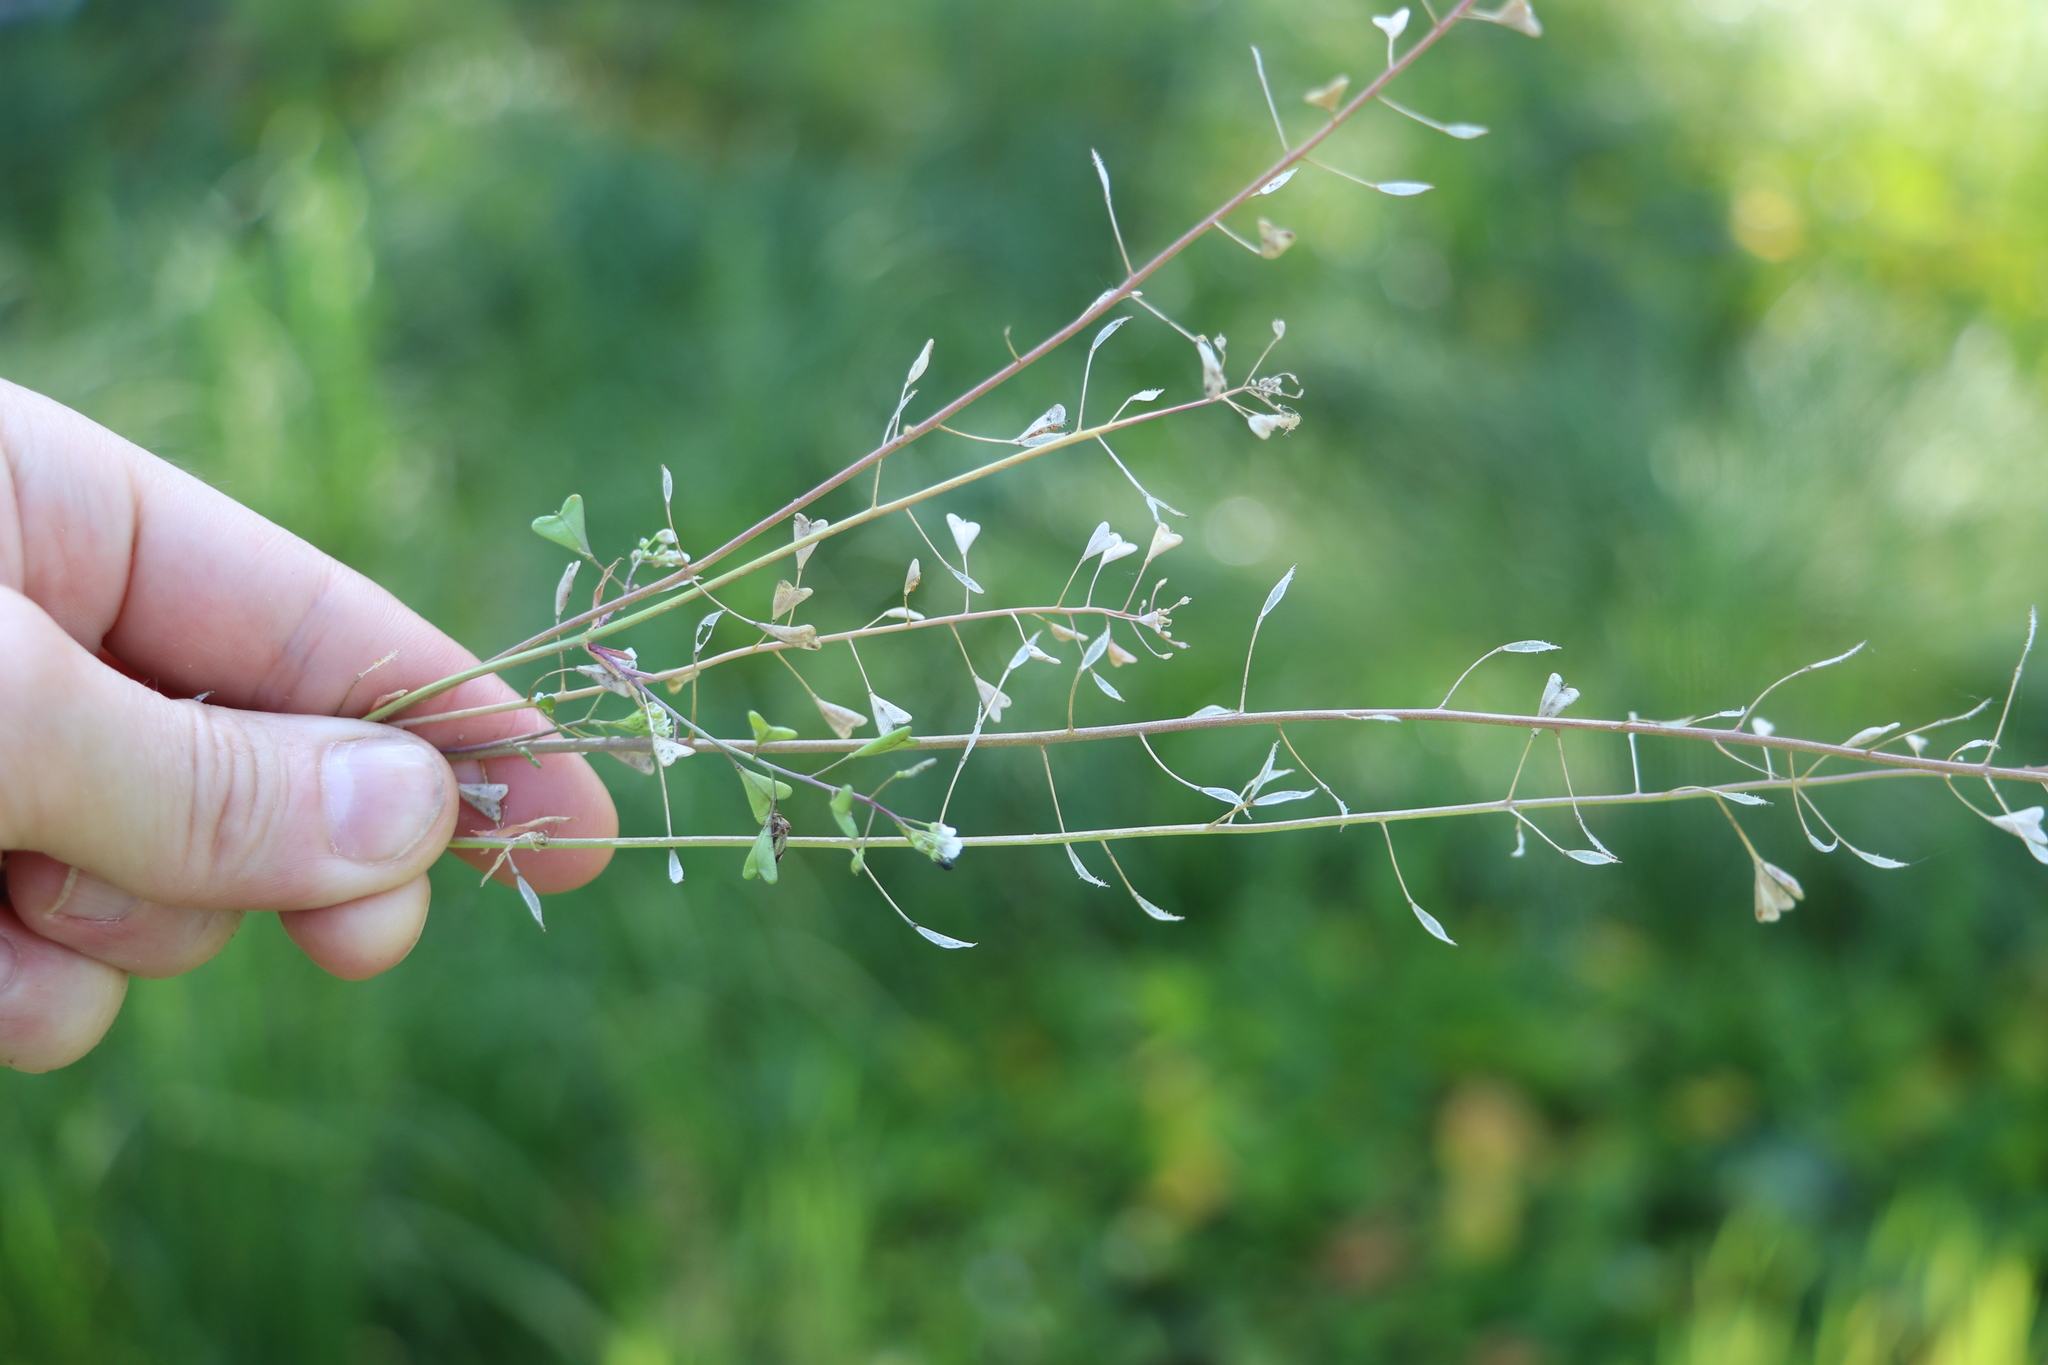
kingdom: Plantae
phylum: Tracheophyta
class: Magnoliopsida
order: Brassicales
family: Brassicaceae
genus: Capsella
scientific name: Capsella bursa-pastoris
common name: Shepherd's purse
